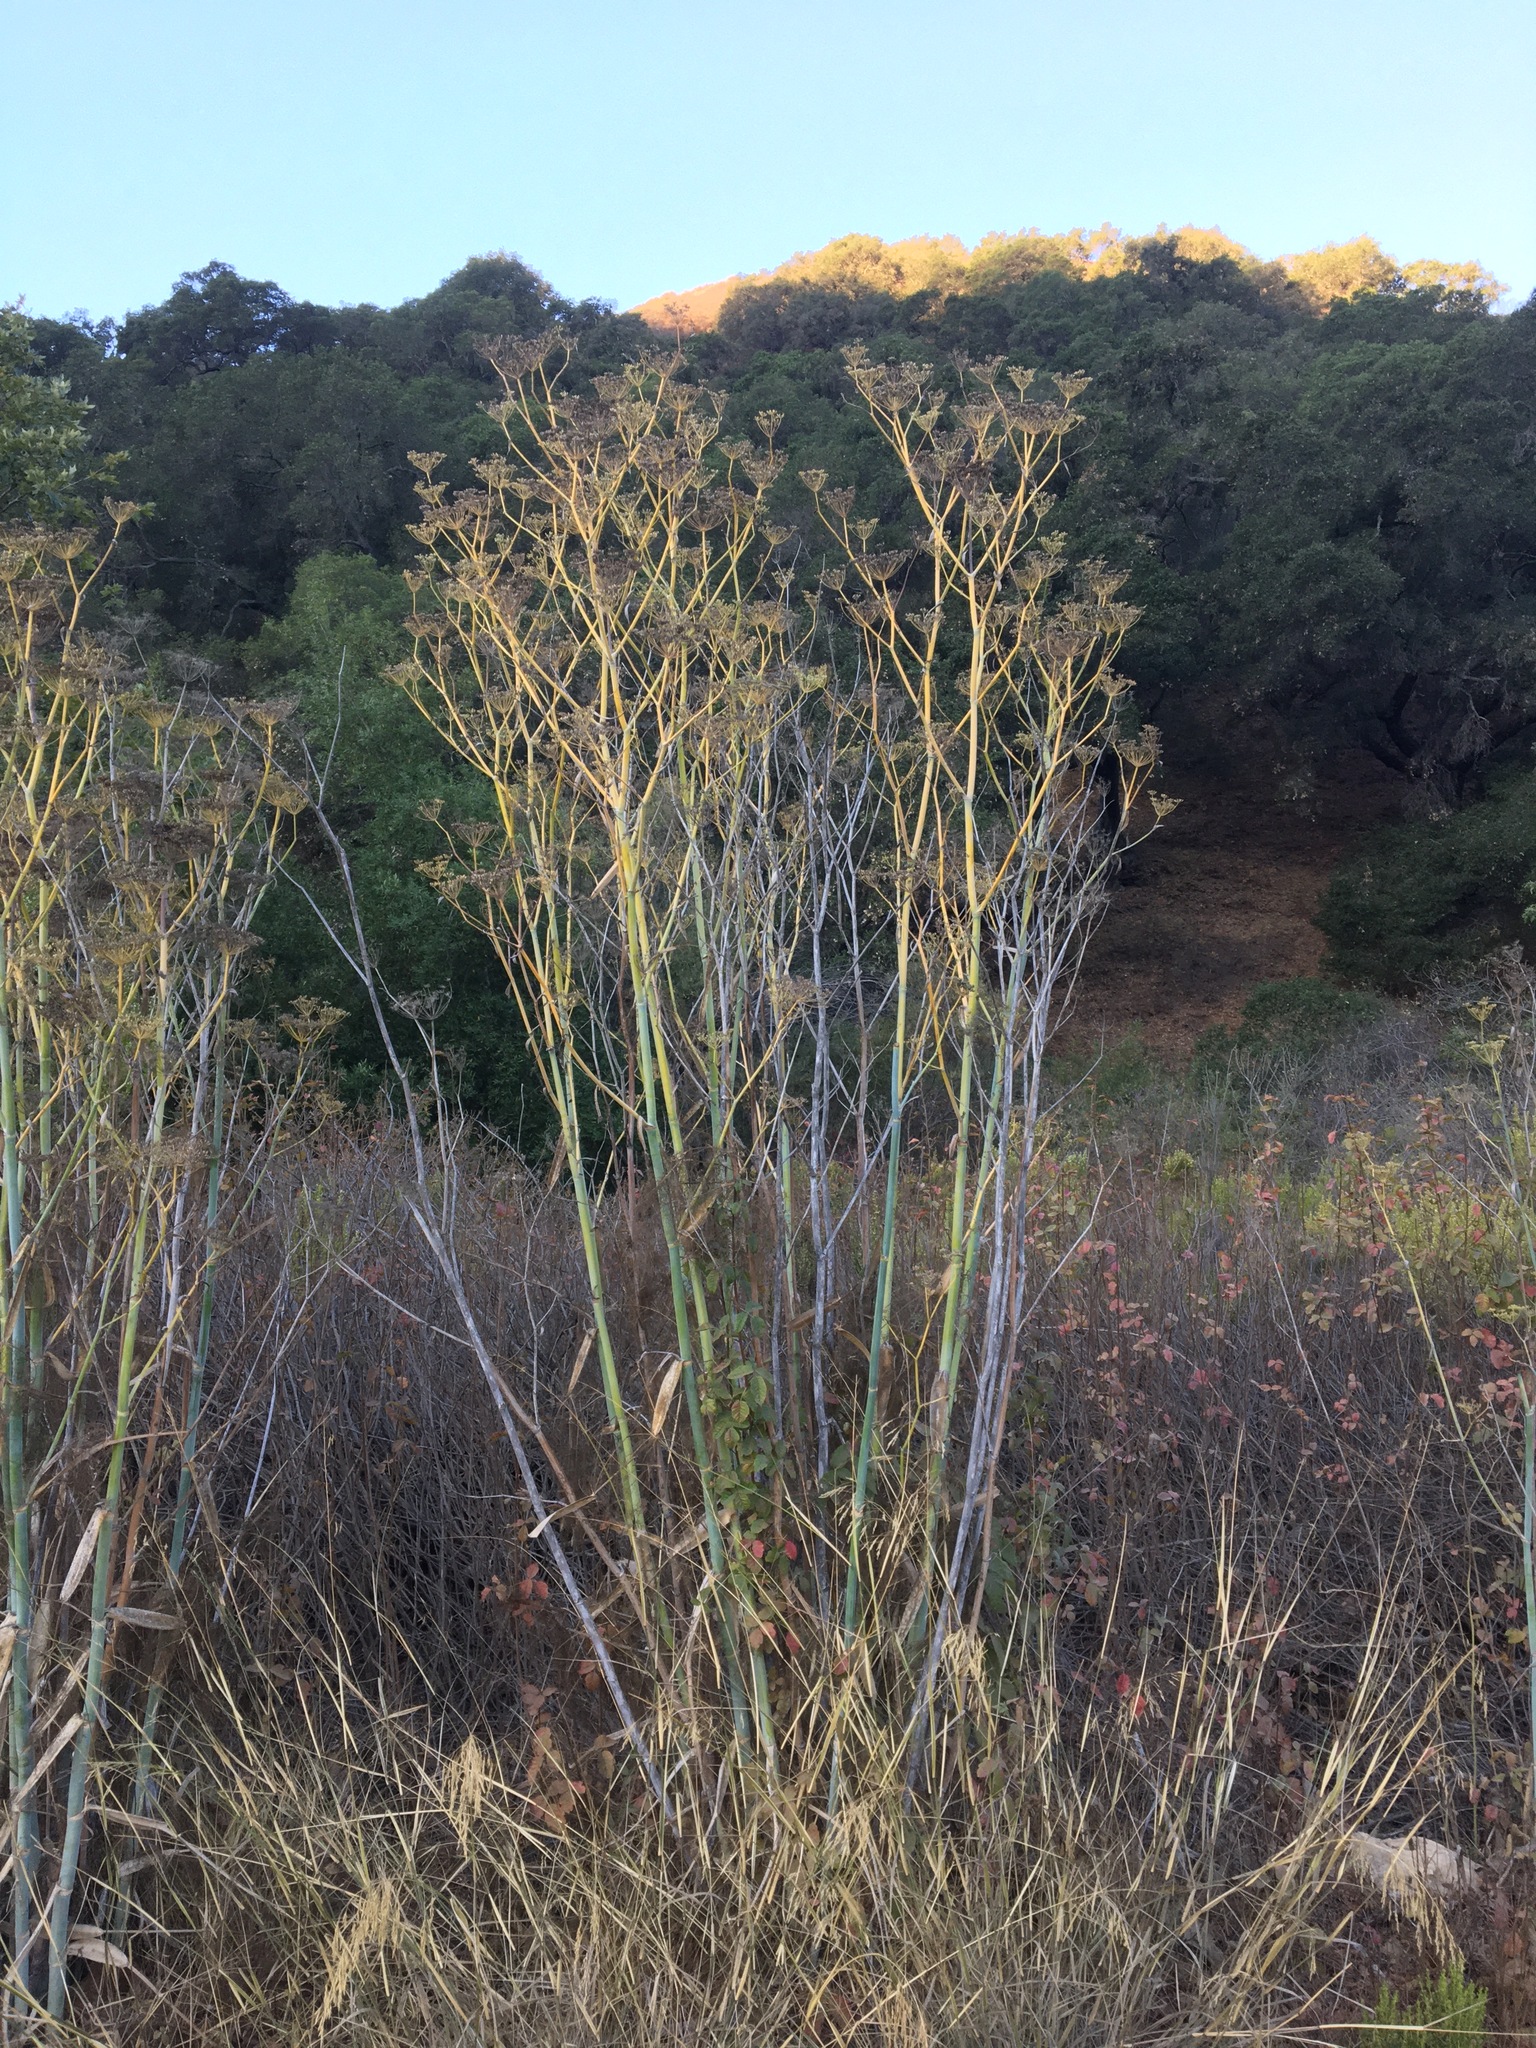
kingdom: Plantae
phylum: Tracheophyta
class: Magnoliopsida
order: Apiales
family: Apiaceae
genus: Foeniculum
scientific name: Foeniculum vulgare
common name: Fennel
